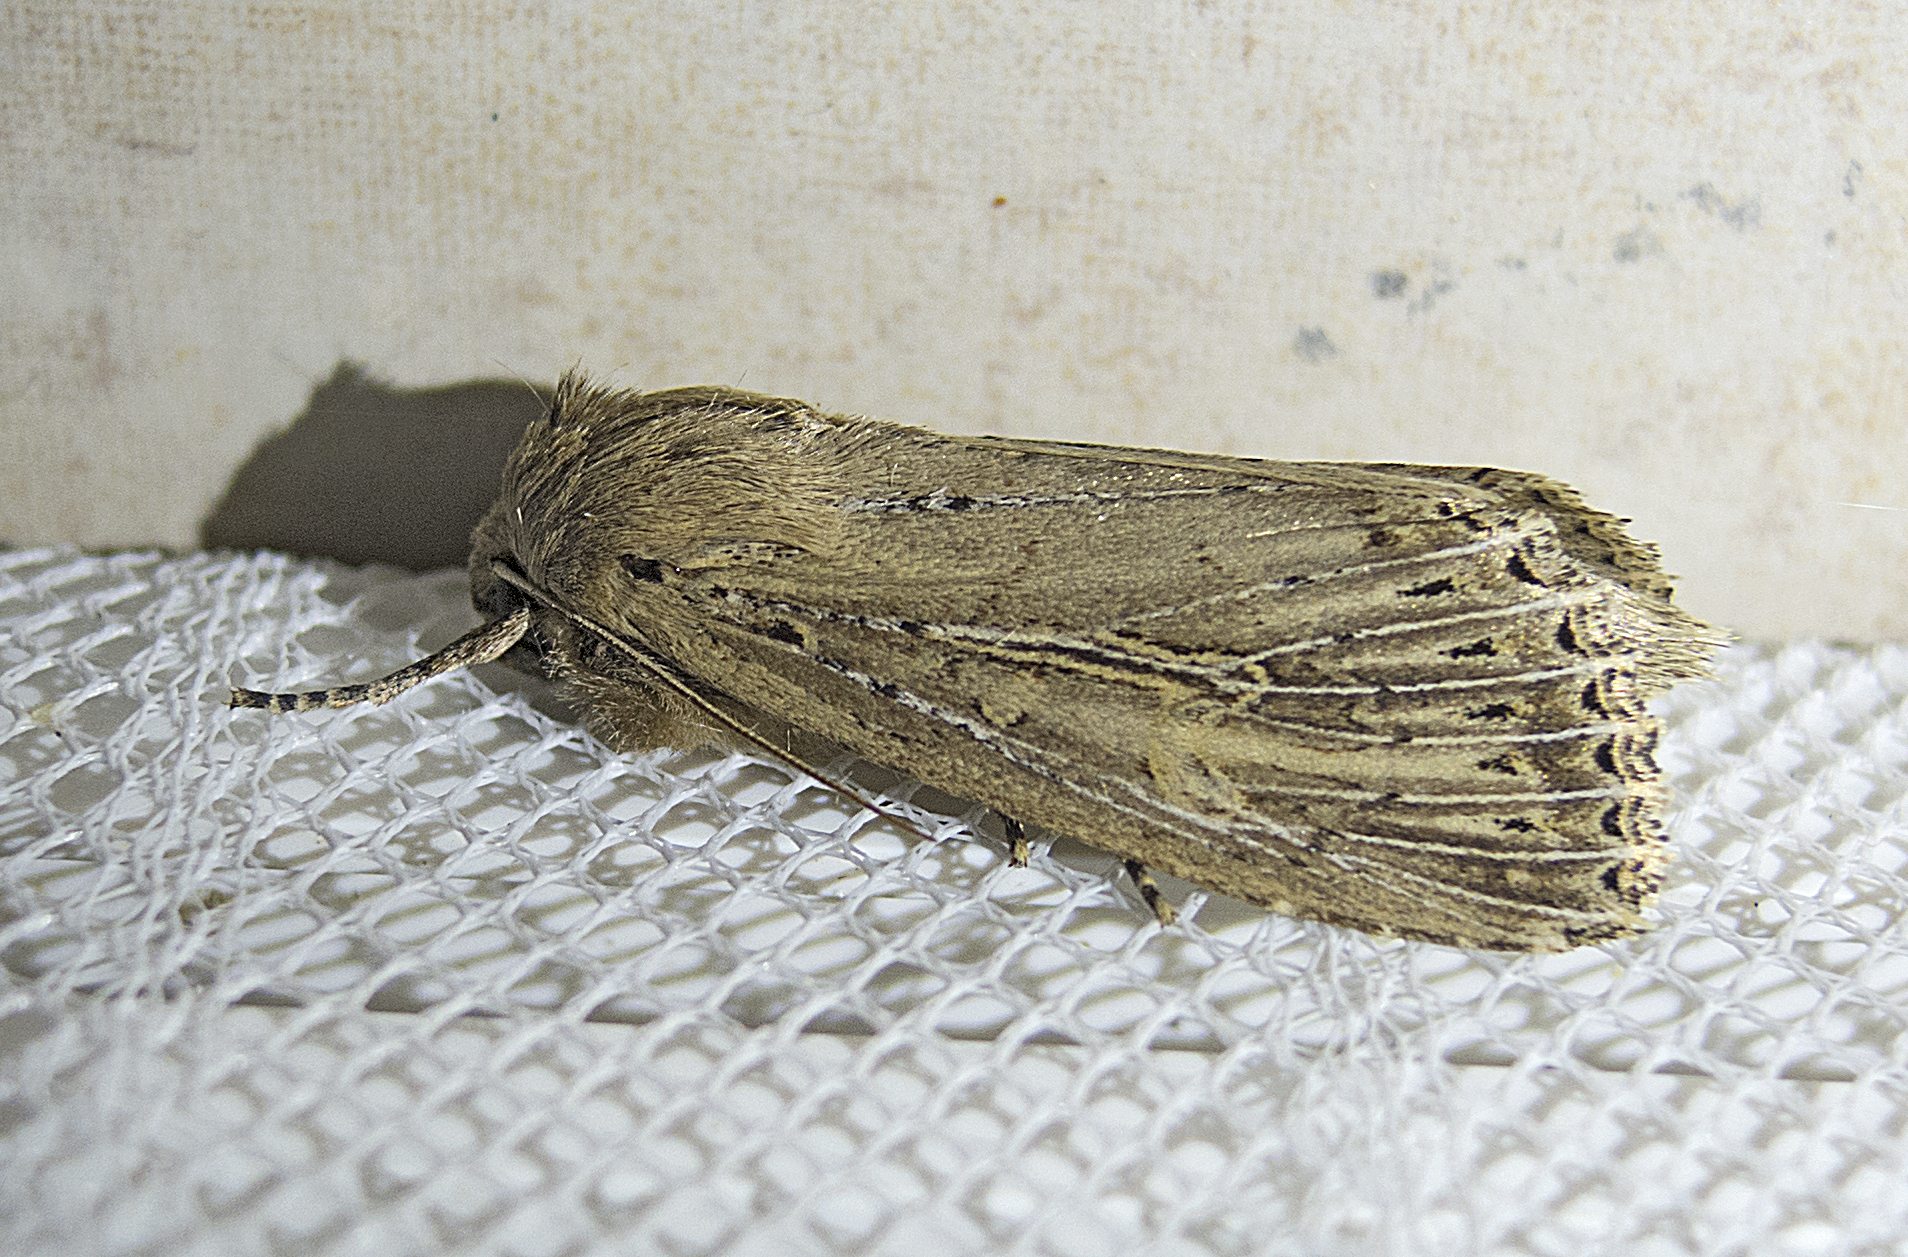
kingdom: Animalia
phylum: Arthropoda
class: Insecta
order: Lepidoptera
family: Noctuidae
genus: Nonagria
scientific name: Nonagria typhae
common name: Bulrush wainscot
